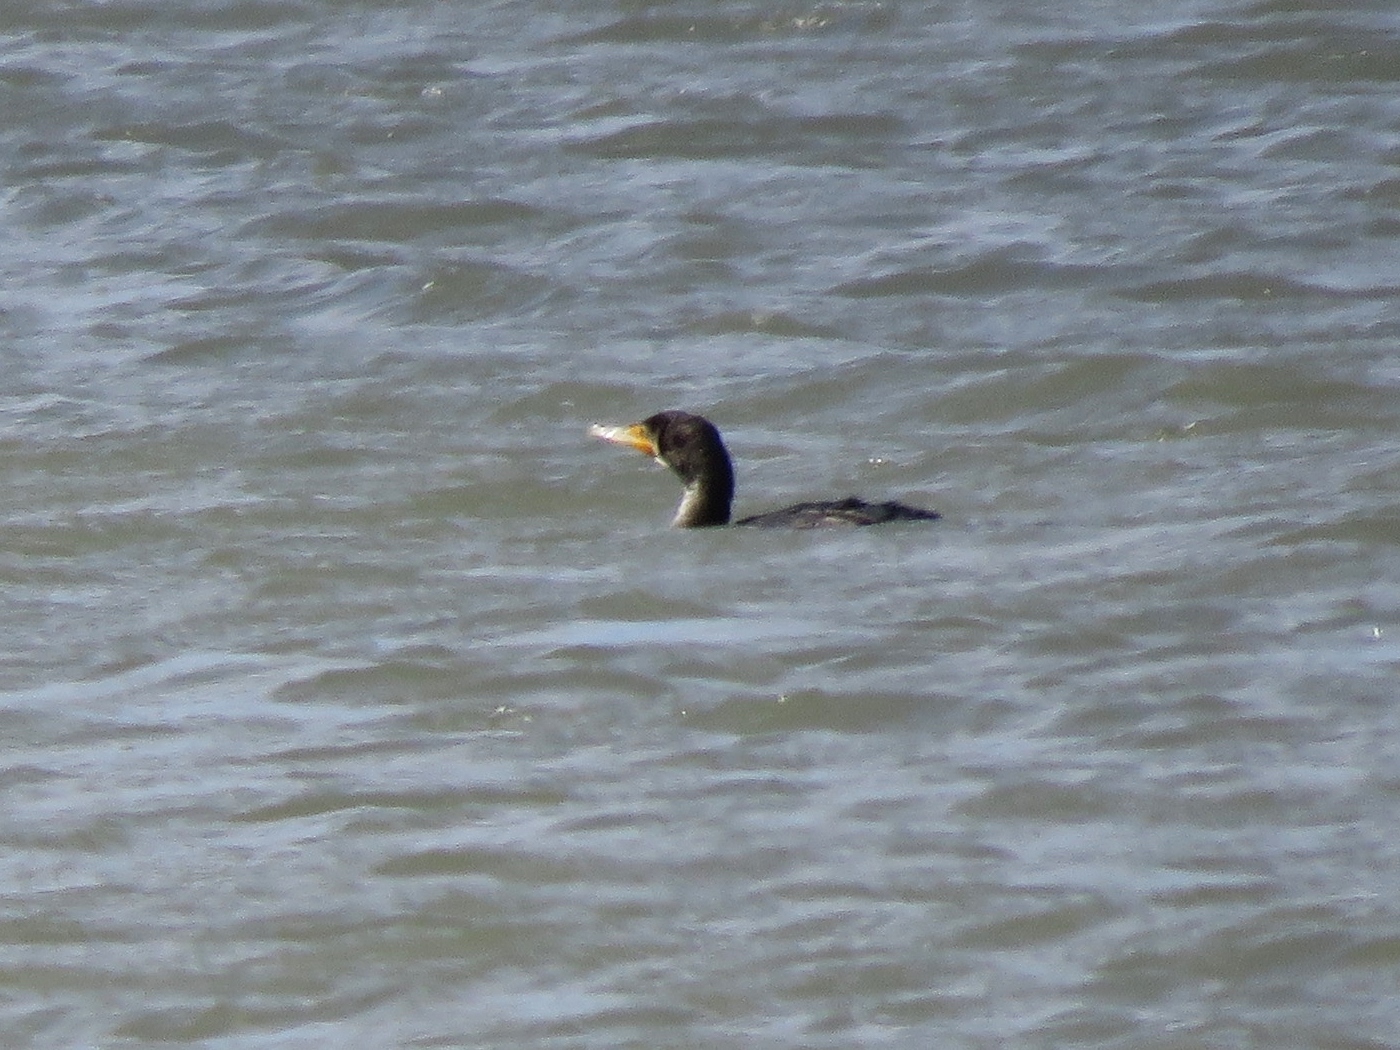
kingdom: Animalia
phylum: Chordata
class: Aves
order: Suliformes
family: Phalacrocoracidae
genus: Phalacrocorax
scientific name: Phalacrocorax auritus
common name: Double-crested cormorant
